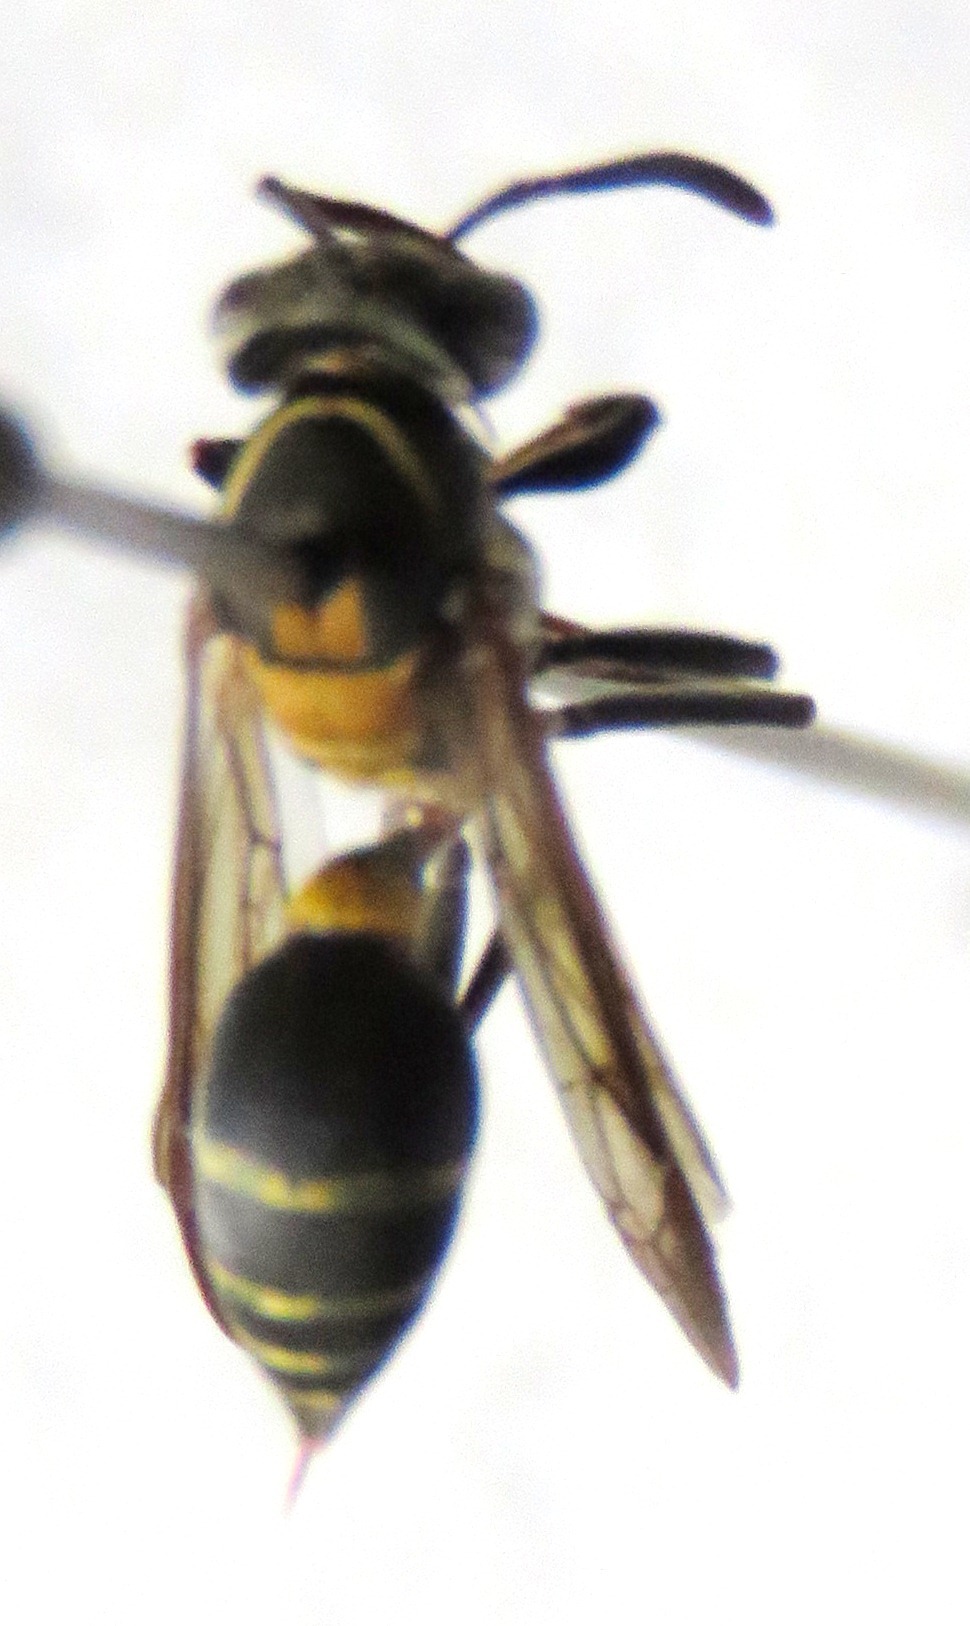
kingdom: Animalia
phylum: Arthropoda
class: Insecta
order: Hymenoptera
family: Eumenidae
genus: Polybia
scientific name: Polybia occidentalis
